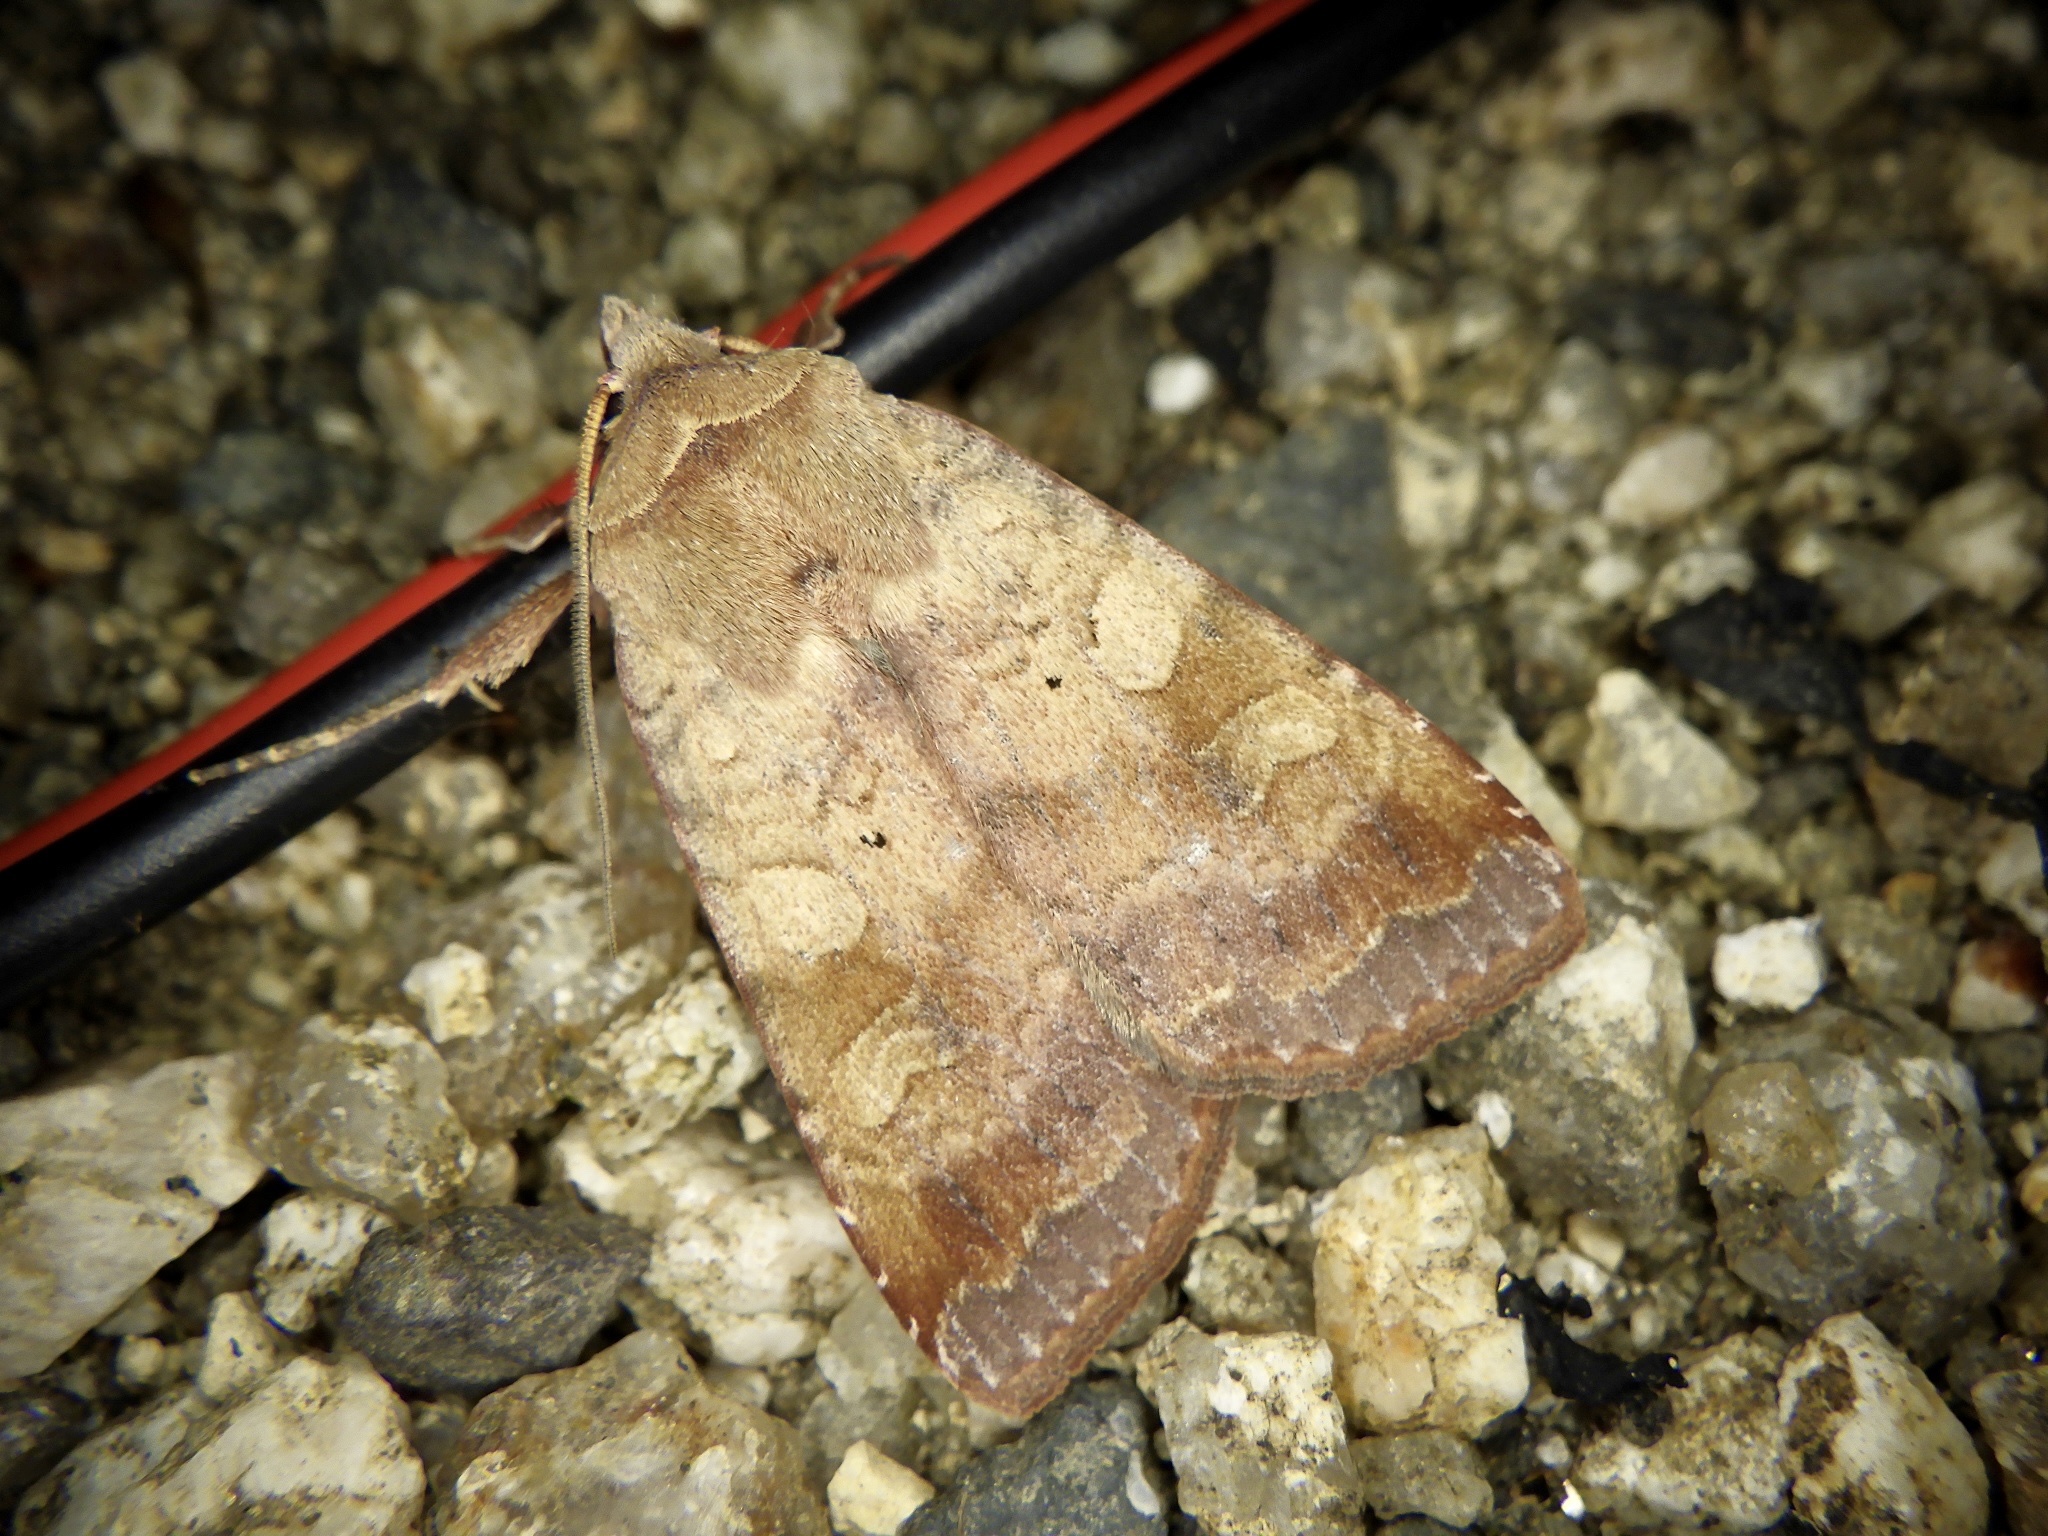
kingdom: Animalia
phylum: Arthropoda
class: Insecta
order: Lepidoptera
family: Noctuidae
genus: Diarsia
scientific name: Diarsia canescens
